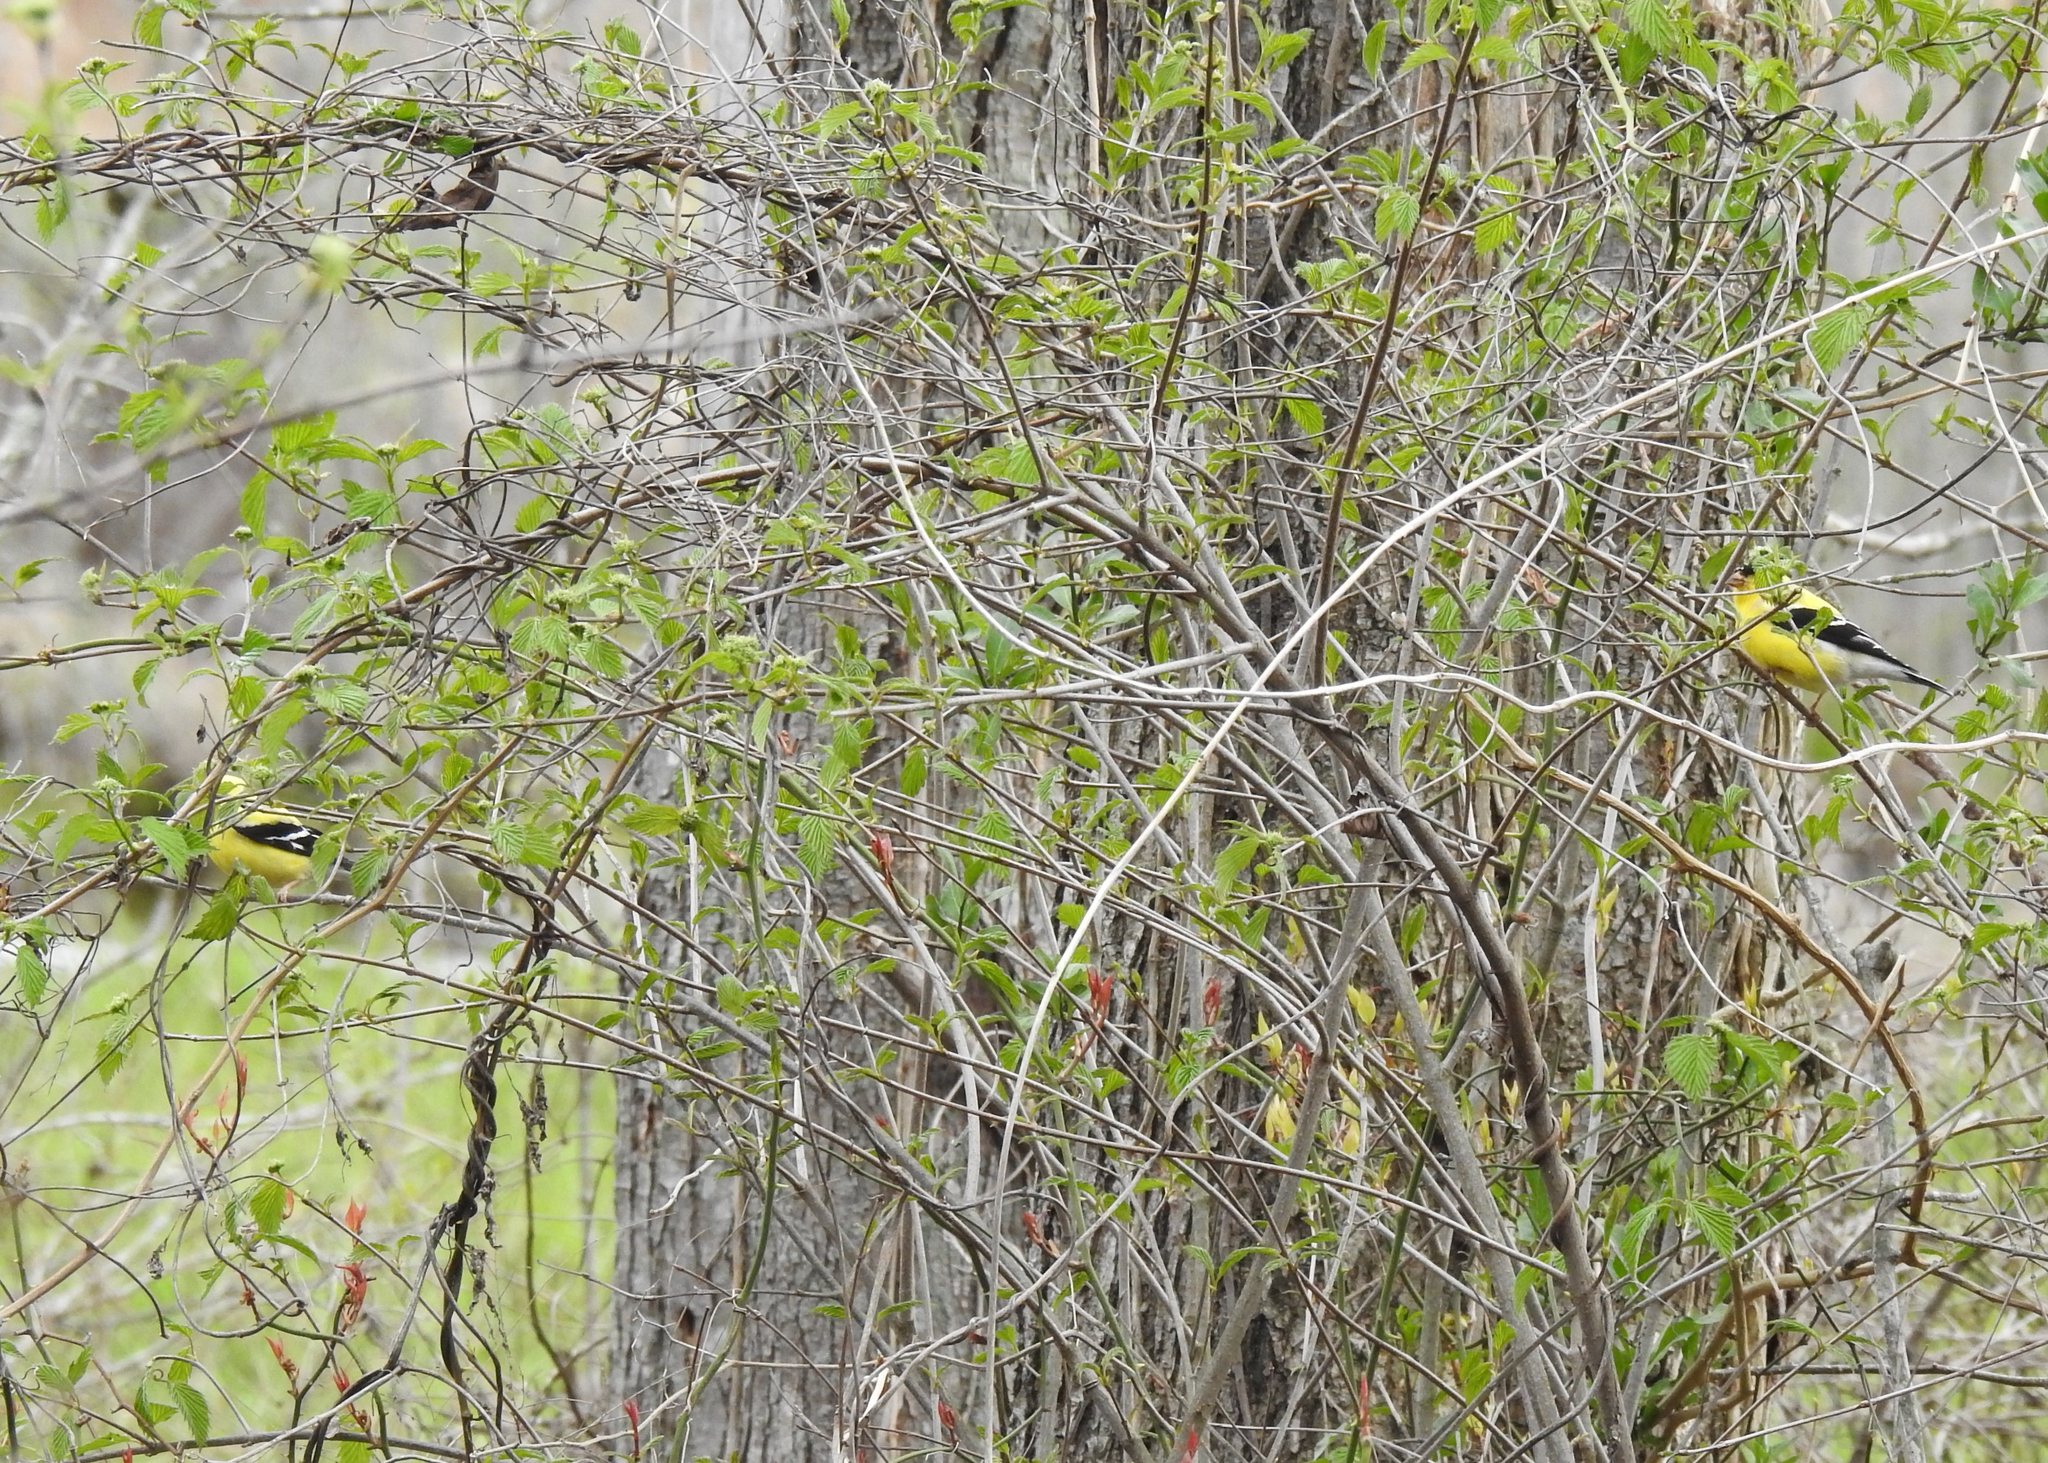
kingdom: Animalia
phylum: Chordata
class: Aves
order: Passeriformes
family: Fringillidae
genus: Spinus
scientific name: Spinus tristis
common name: American goldfinch
